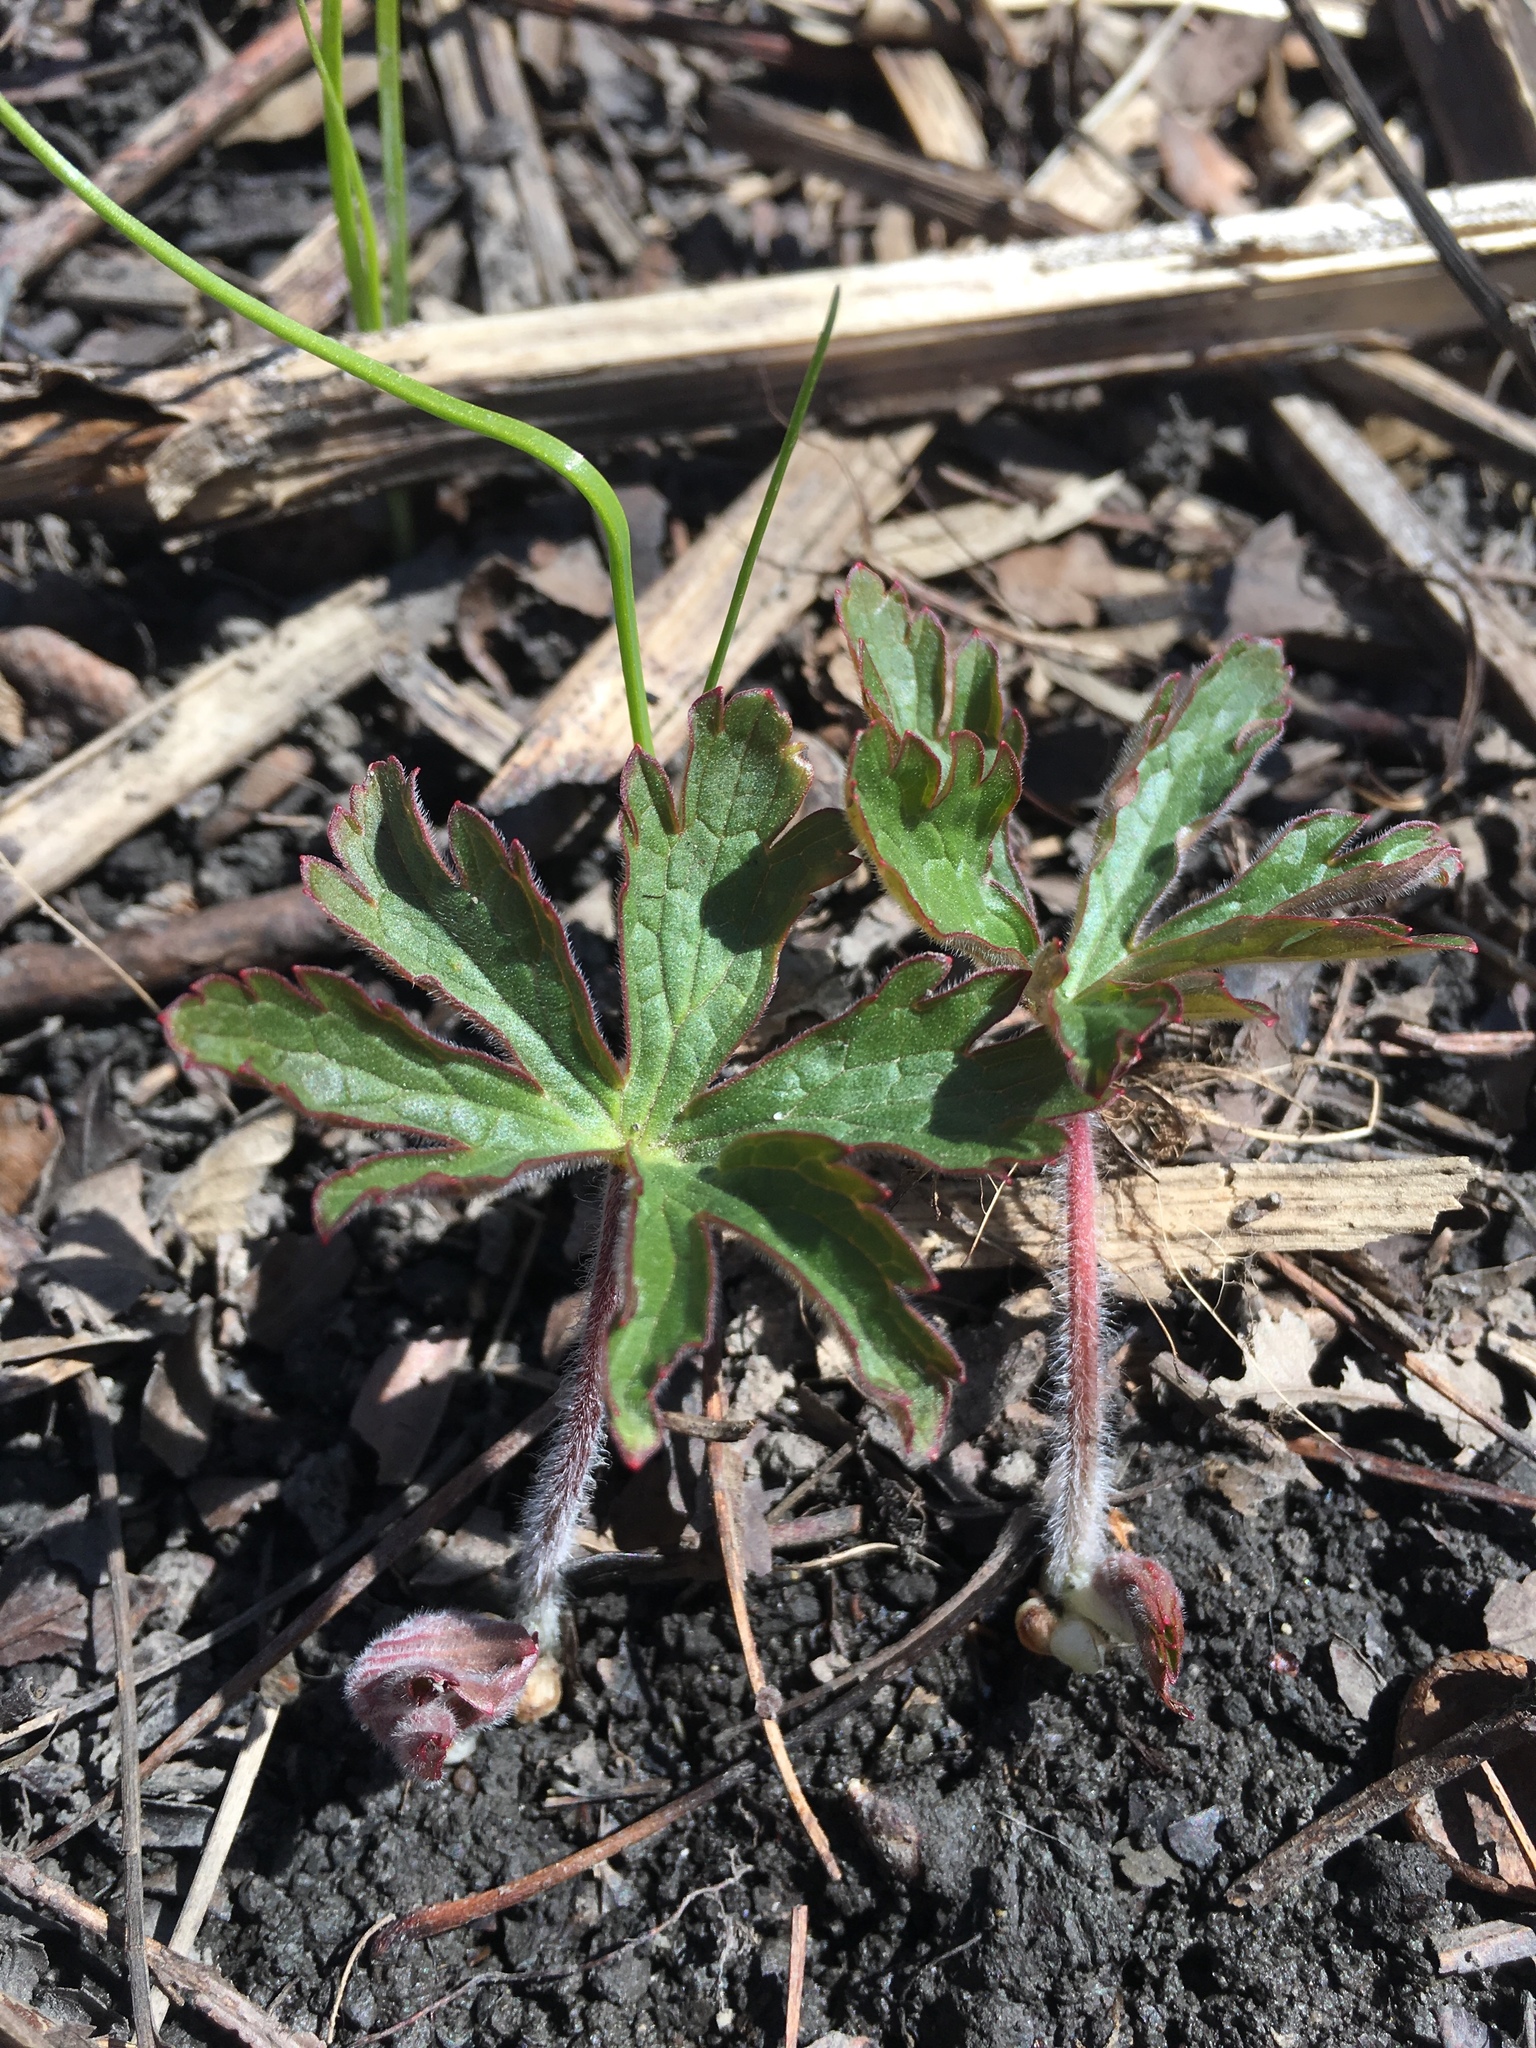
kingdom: Plantae
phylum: Tracheophyta
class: Magnoliopsida
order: Geraniales
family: Geraniaceae
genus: Geranium
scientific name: Geranium maculatum
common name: Spotted geranium
